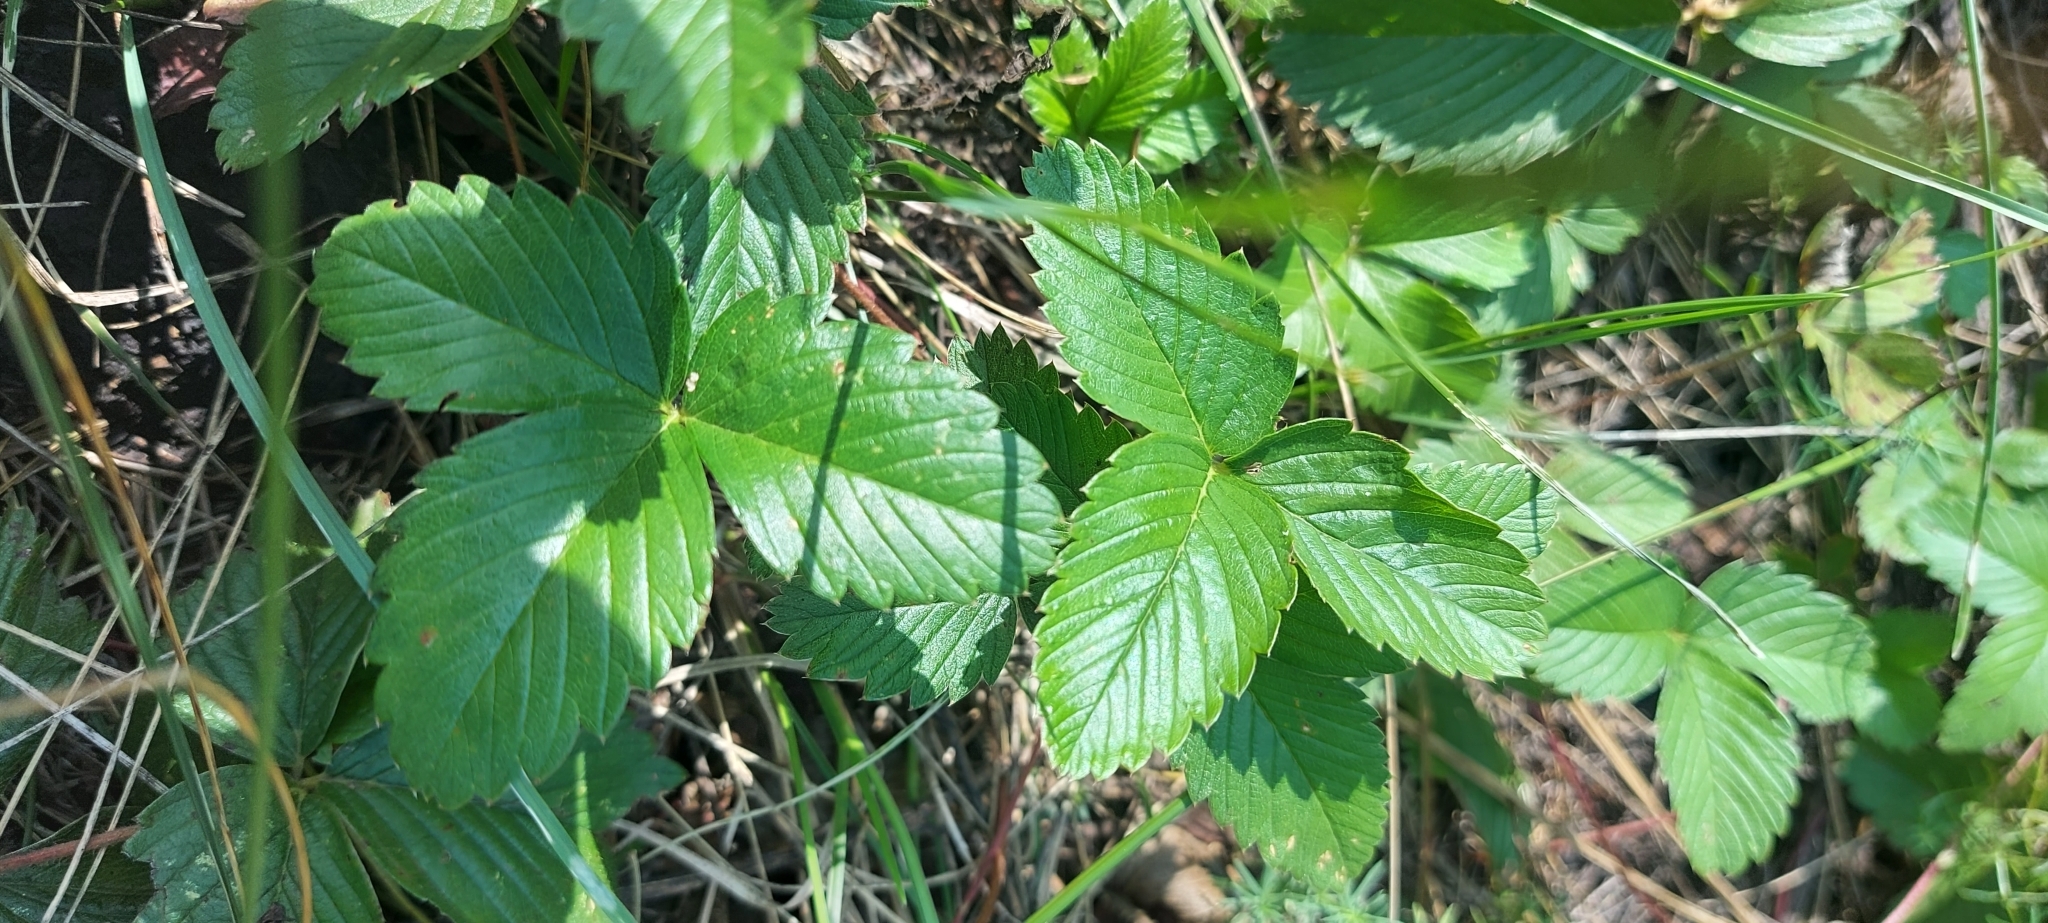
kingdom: Plantae
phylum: Tracheophyta
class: Magnoliopsida
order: Rosales
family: Rosaceae
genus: Fragaria
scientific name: Fragaria viridis
